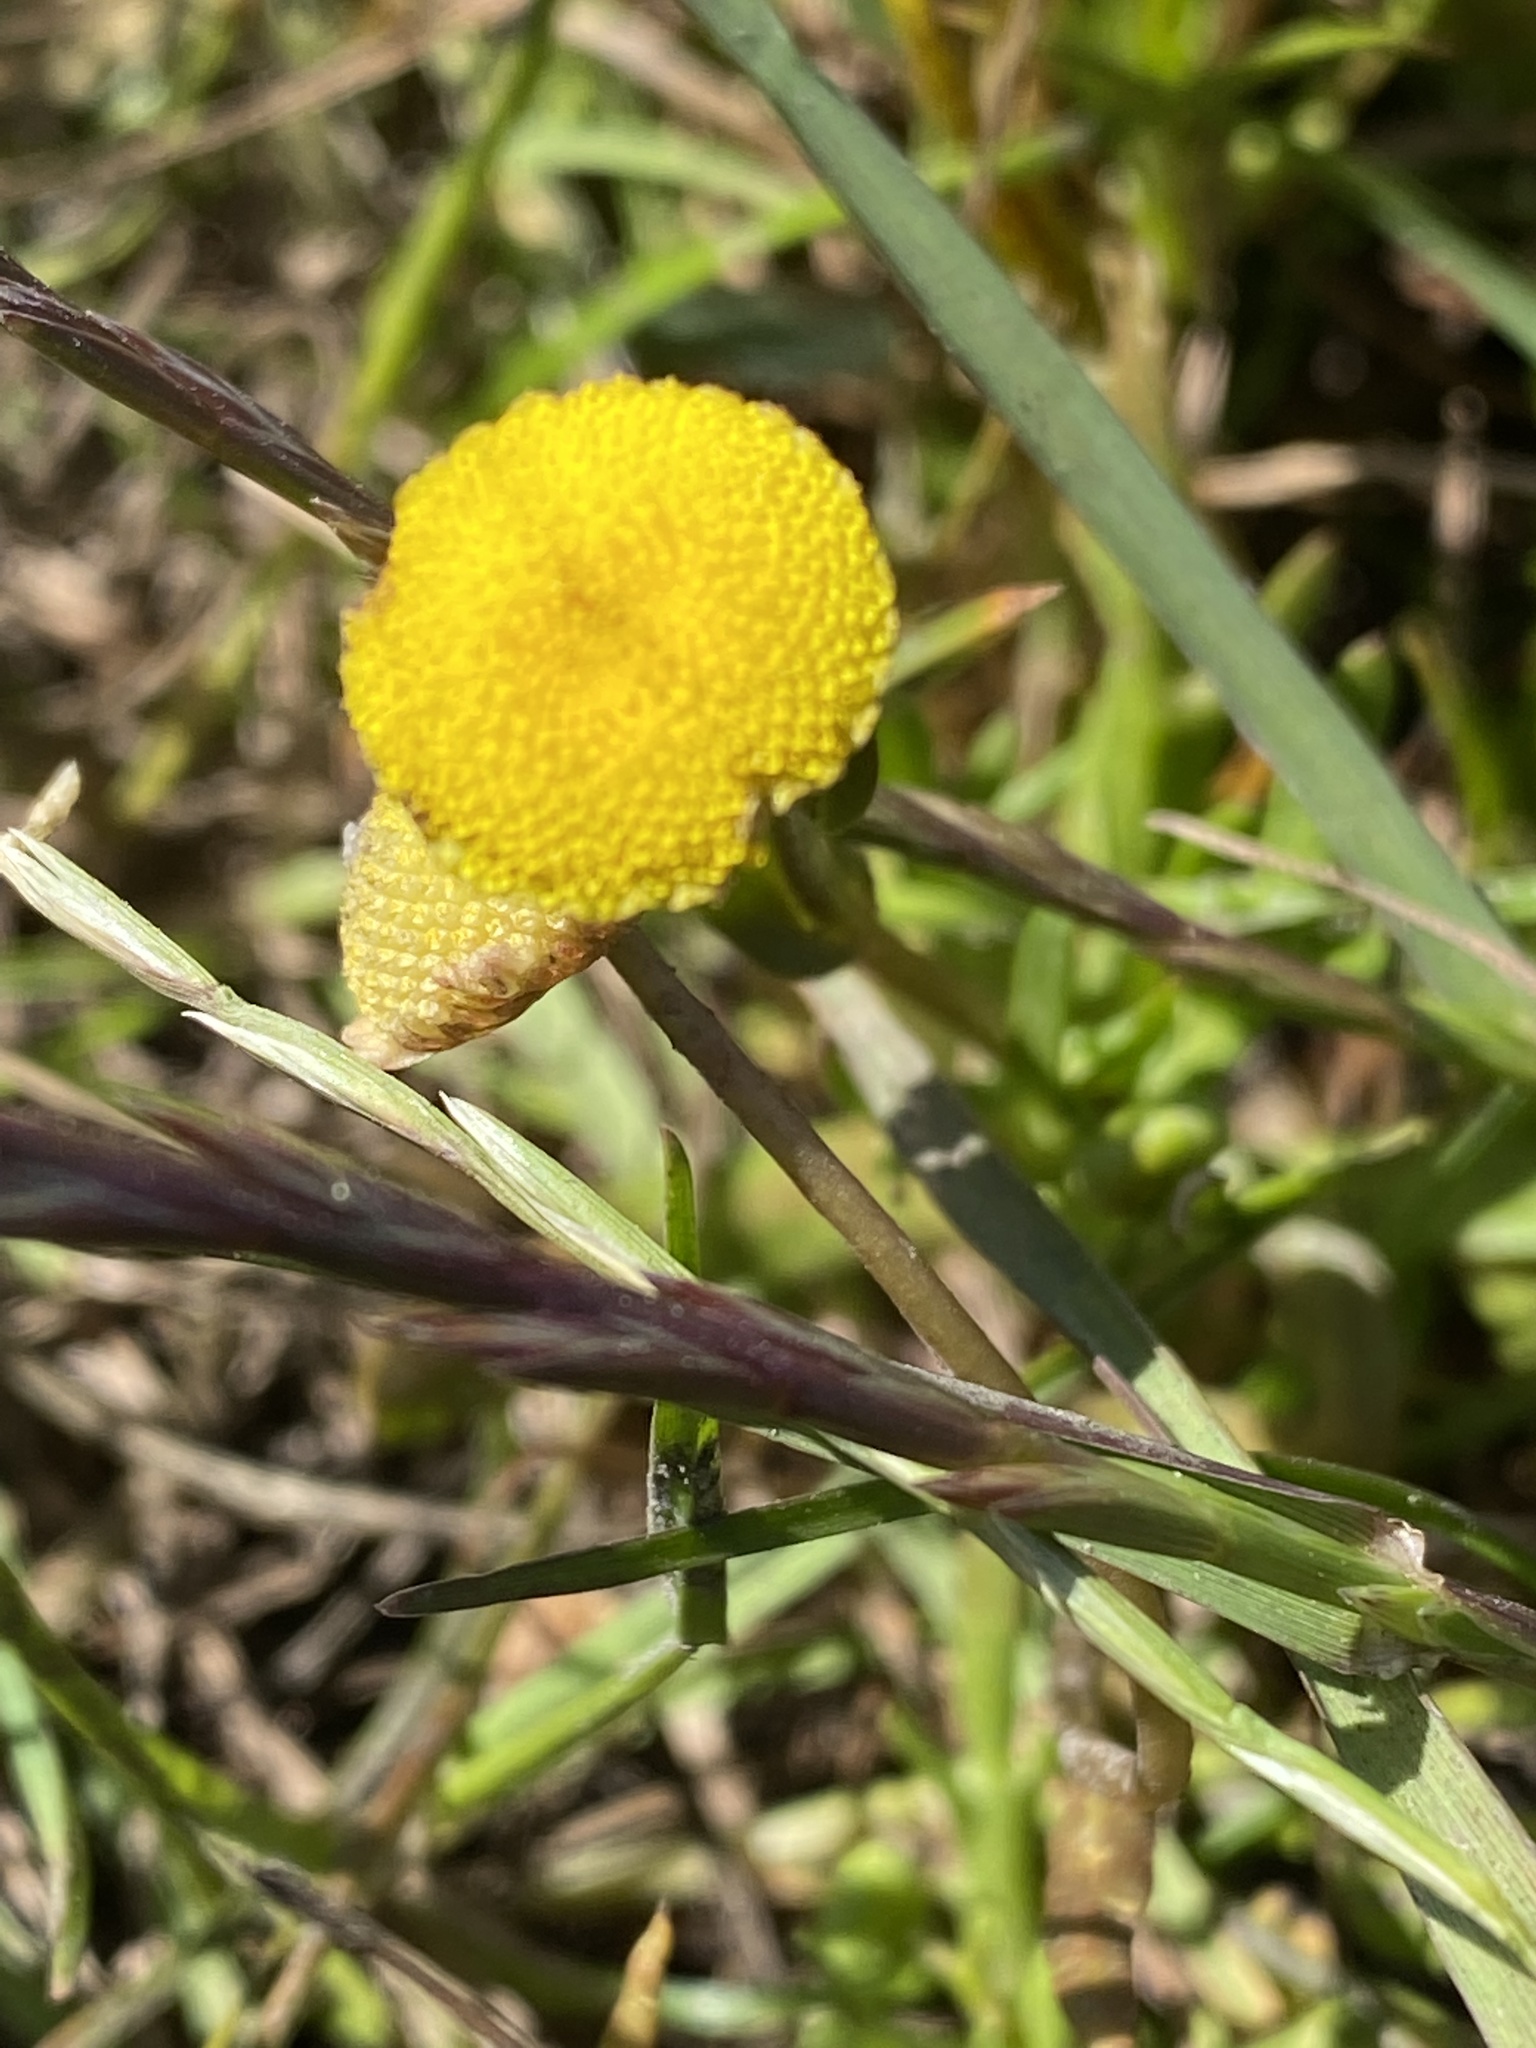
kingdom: Plantae
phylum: Tracheophyta
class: Magnoliopsida
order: Asterales
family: Asteraceae
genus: Cotula
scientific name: Cotula coronopifolia
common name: Buttonweed
